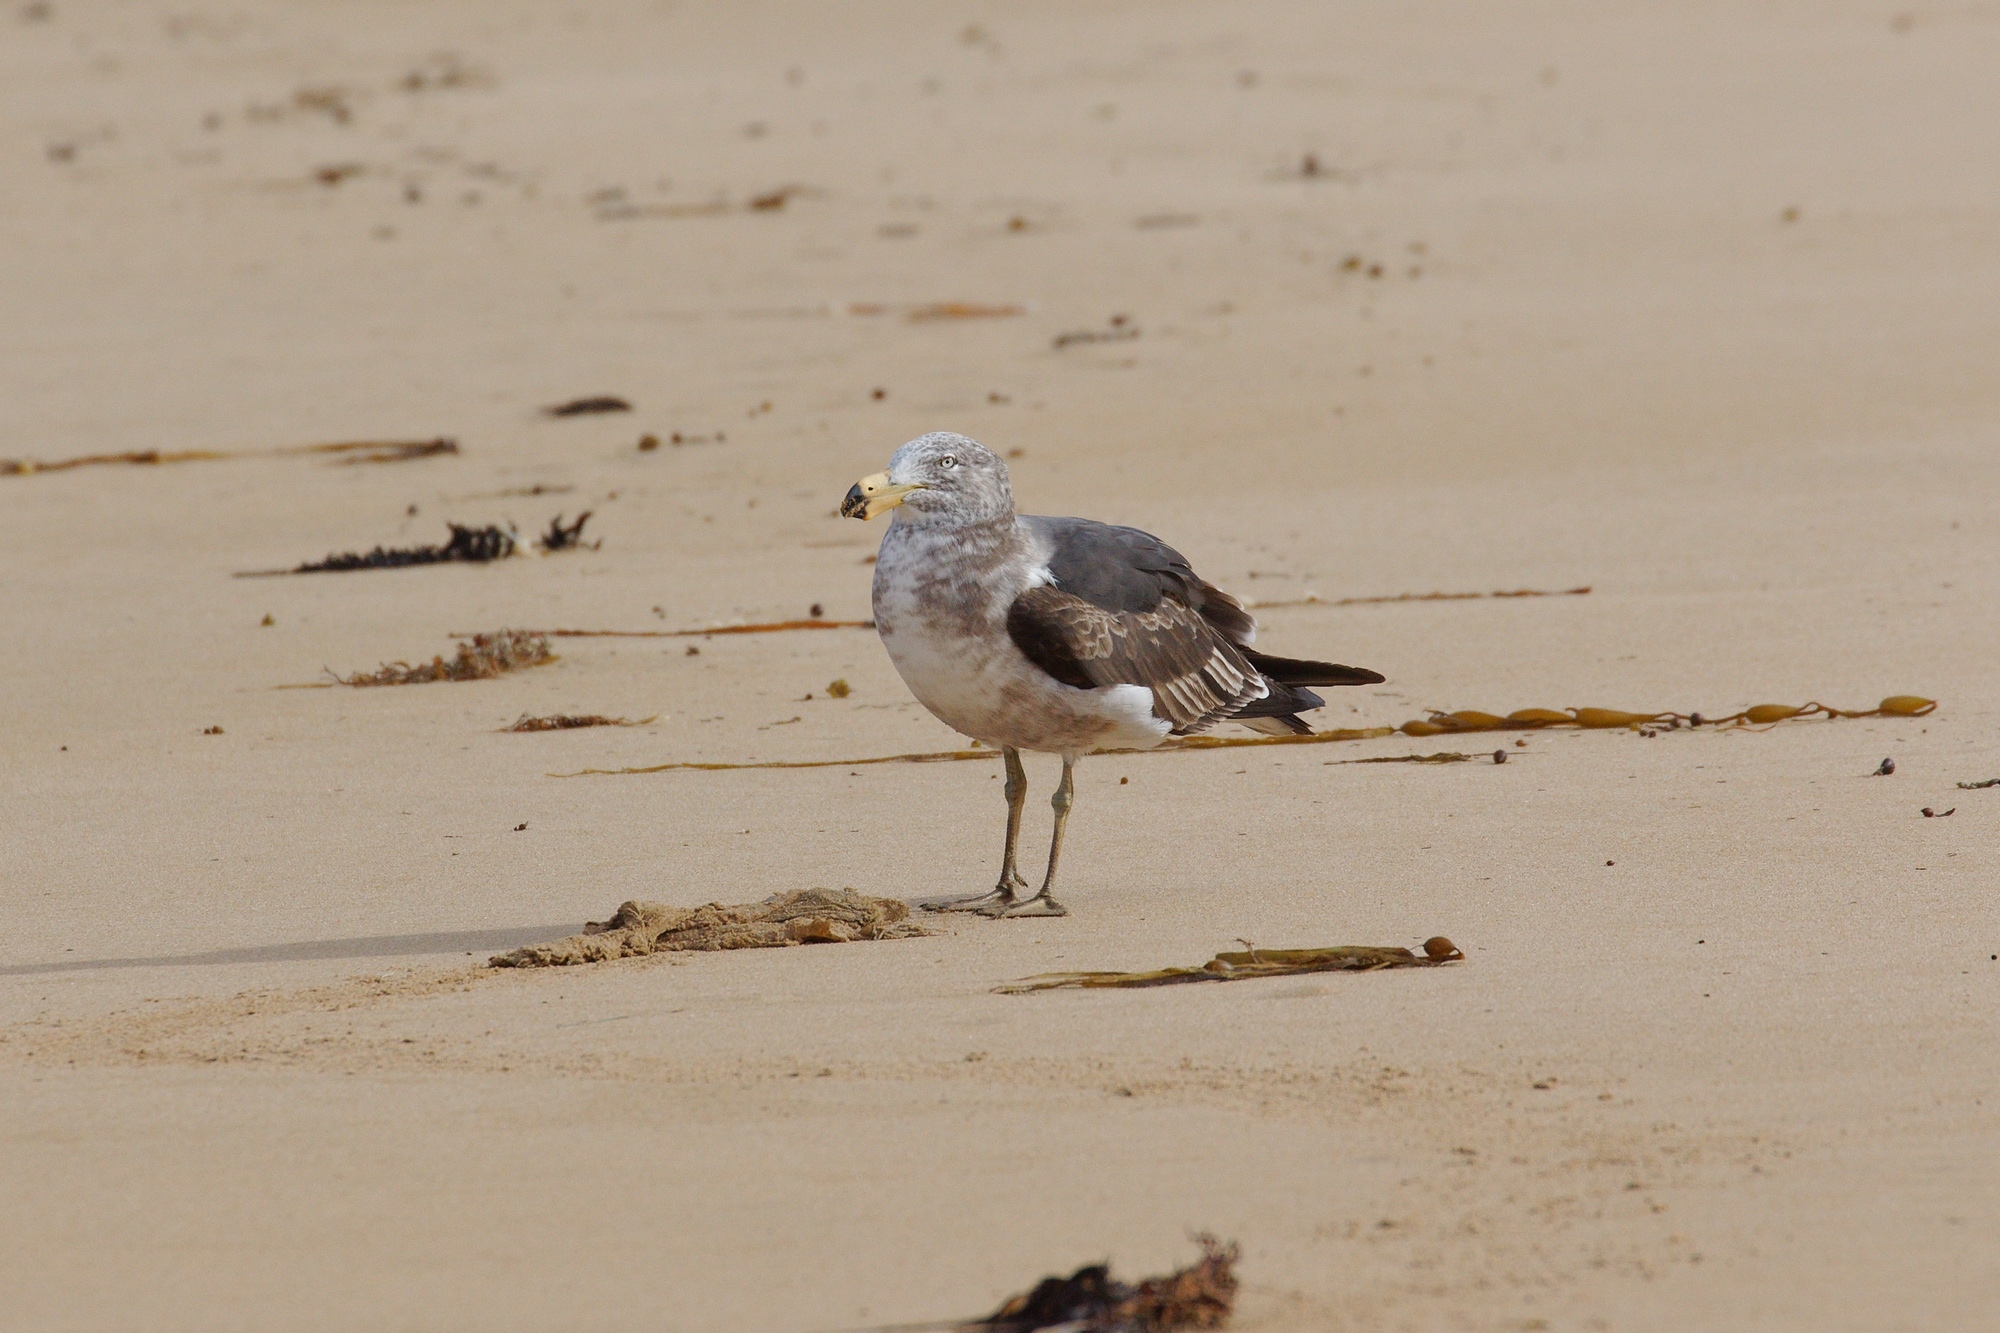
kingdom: Animalia
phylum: Chordata
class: Aves
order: Charadriiformes
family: Laridae
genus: Larus
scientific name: Larus pacificus
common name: Pacific gull
